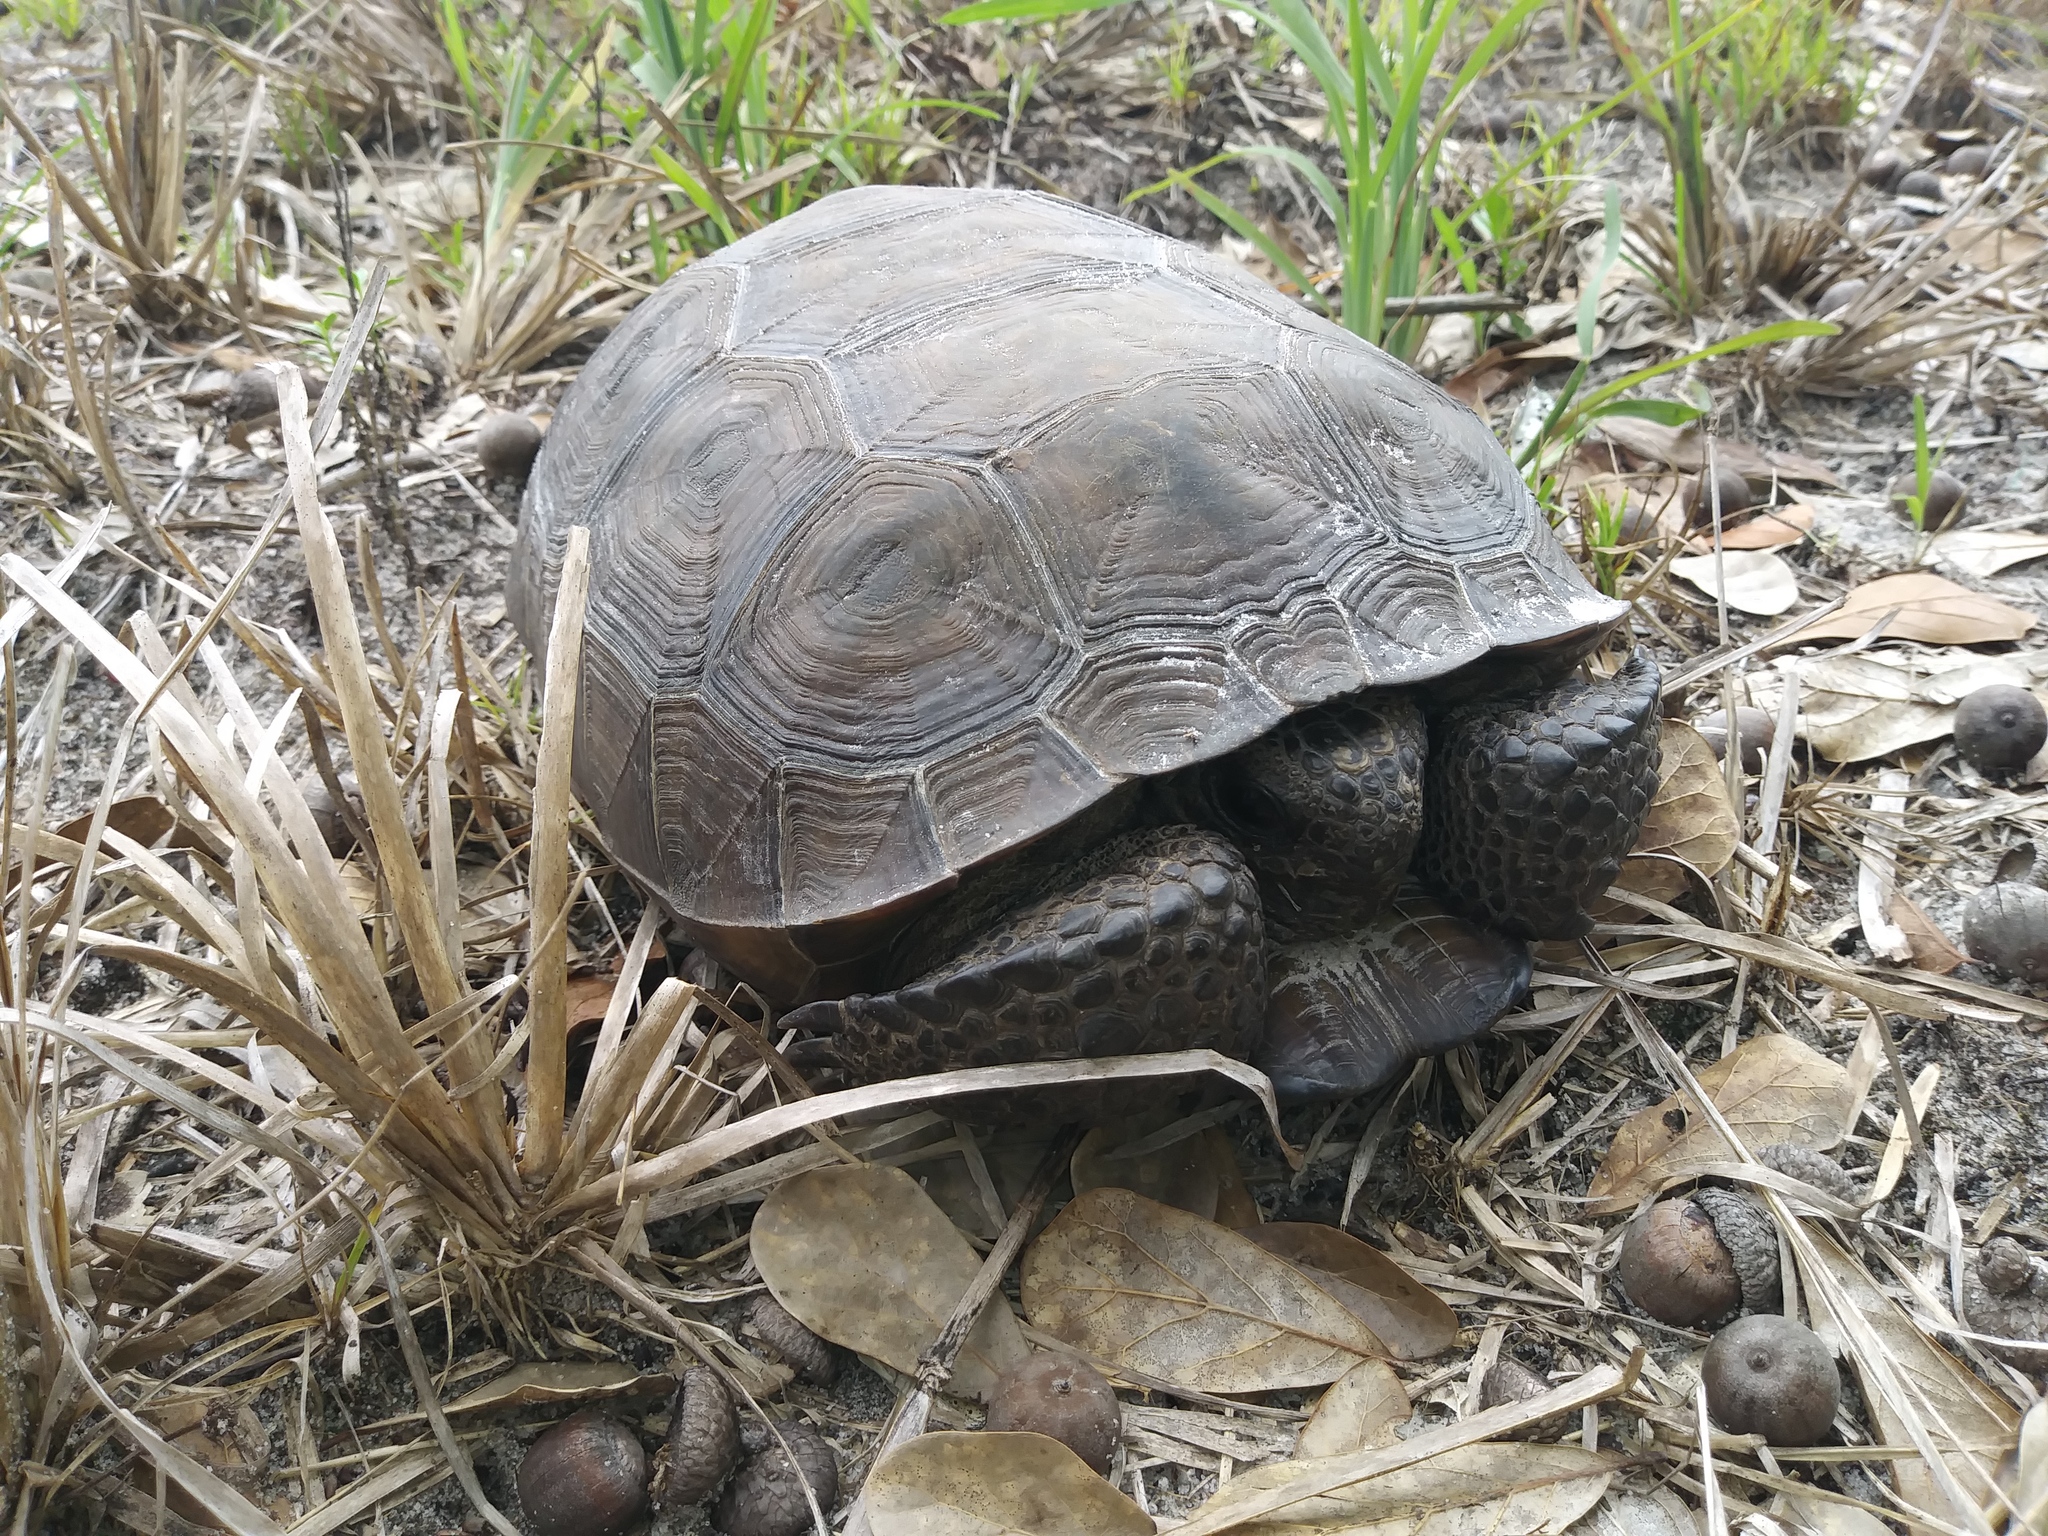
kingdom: Animalia
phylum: Chordata
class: Testudines
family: Testudinidae
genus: Gopherus
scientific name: Gopherus polyphemus
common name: Florida gopher tortoise
